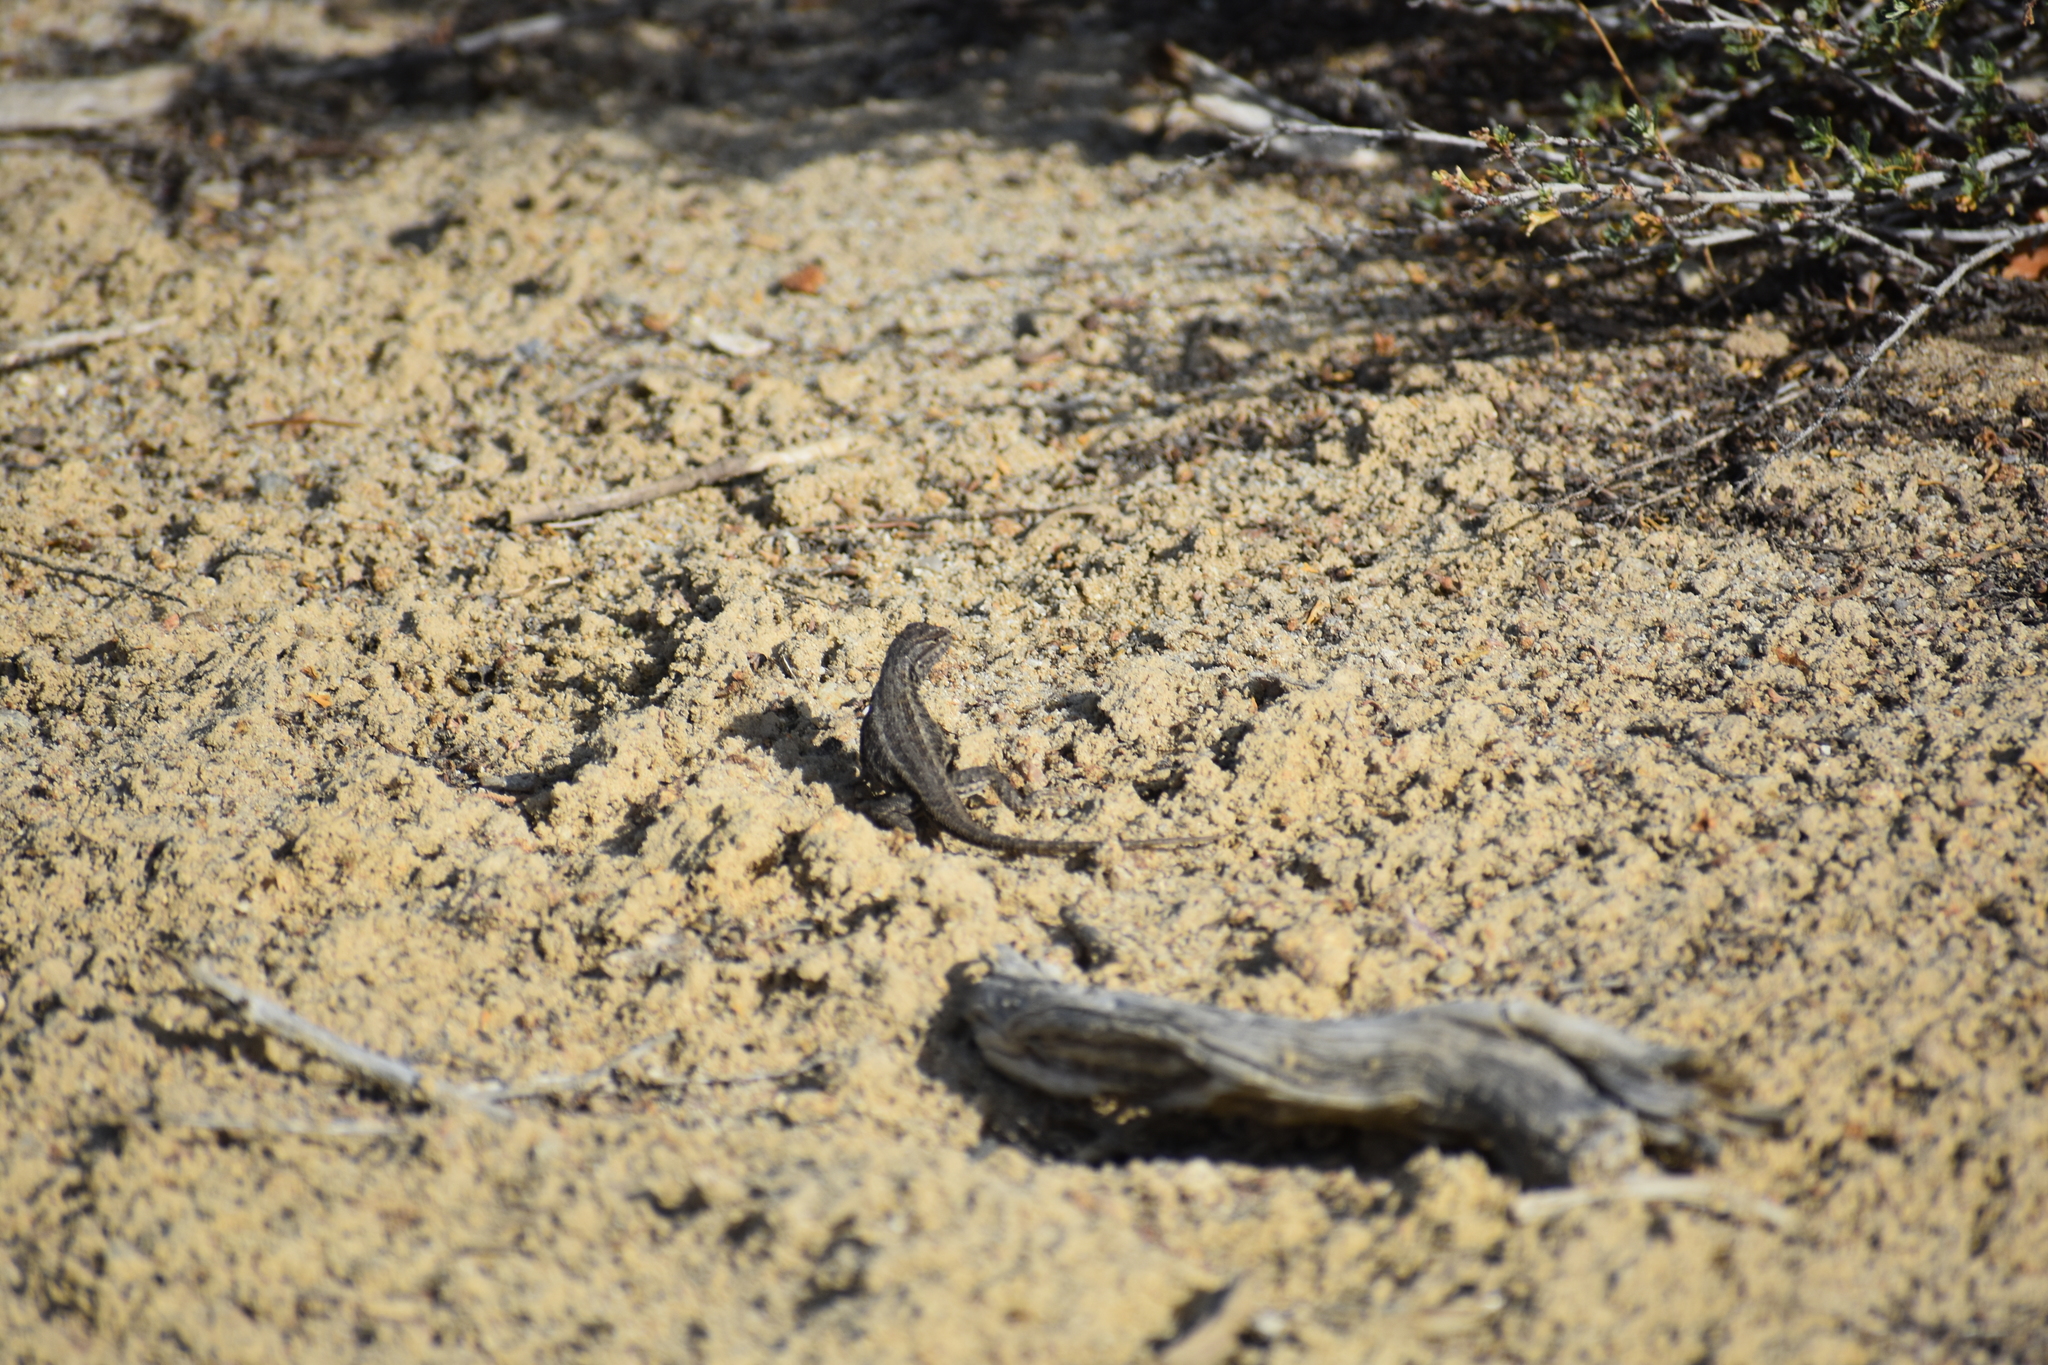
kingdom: Animalia
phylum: Chordata
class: Squamata
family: Phrynosomatidae
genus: Sceloporus
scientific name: Sceloporus graciosus
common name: Sagebrush lizard
